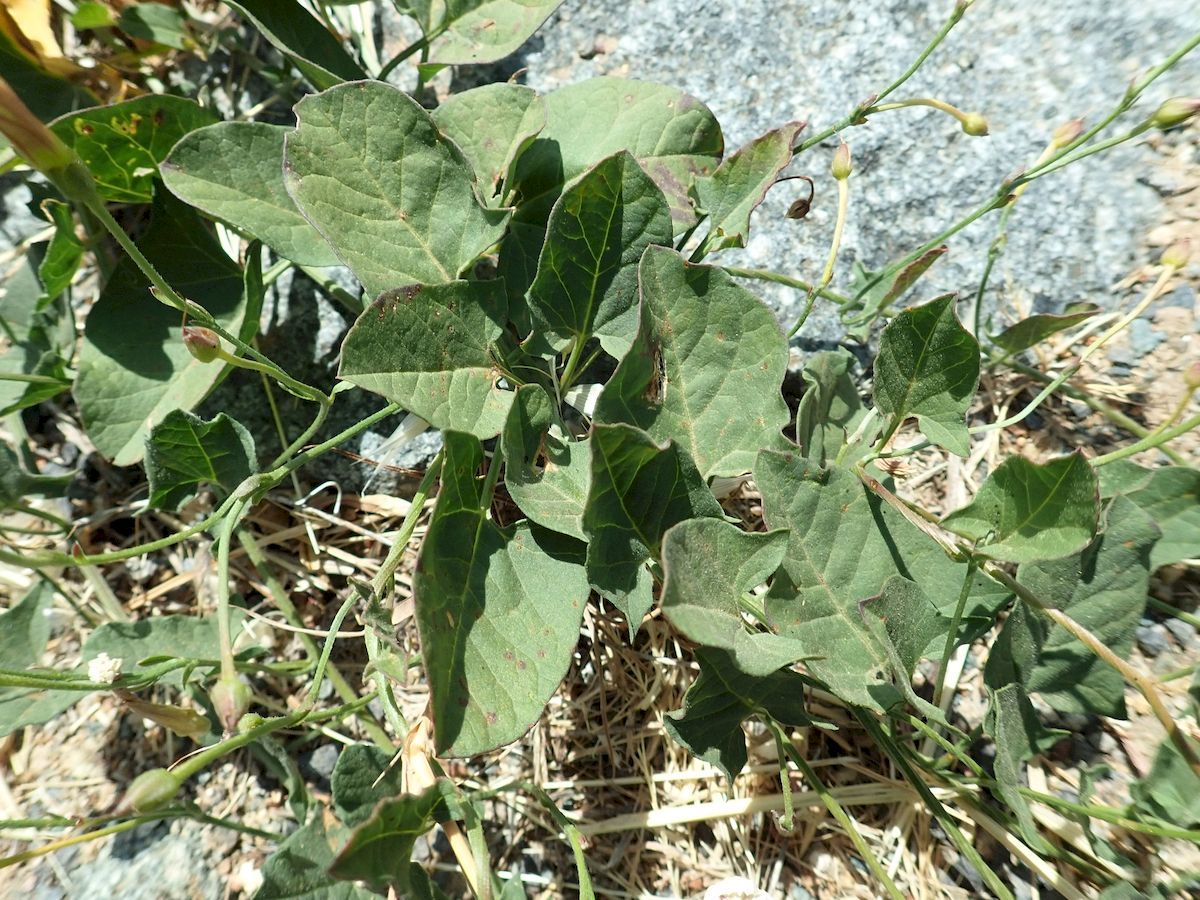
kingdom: Plantae
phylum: Tracheophyta
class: Magnoliopsida
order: Solanales
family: Convolvulaceae
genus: Convolvulus
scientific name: Convolvulus arvensis
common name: Field bindweed
